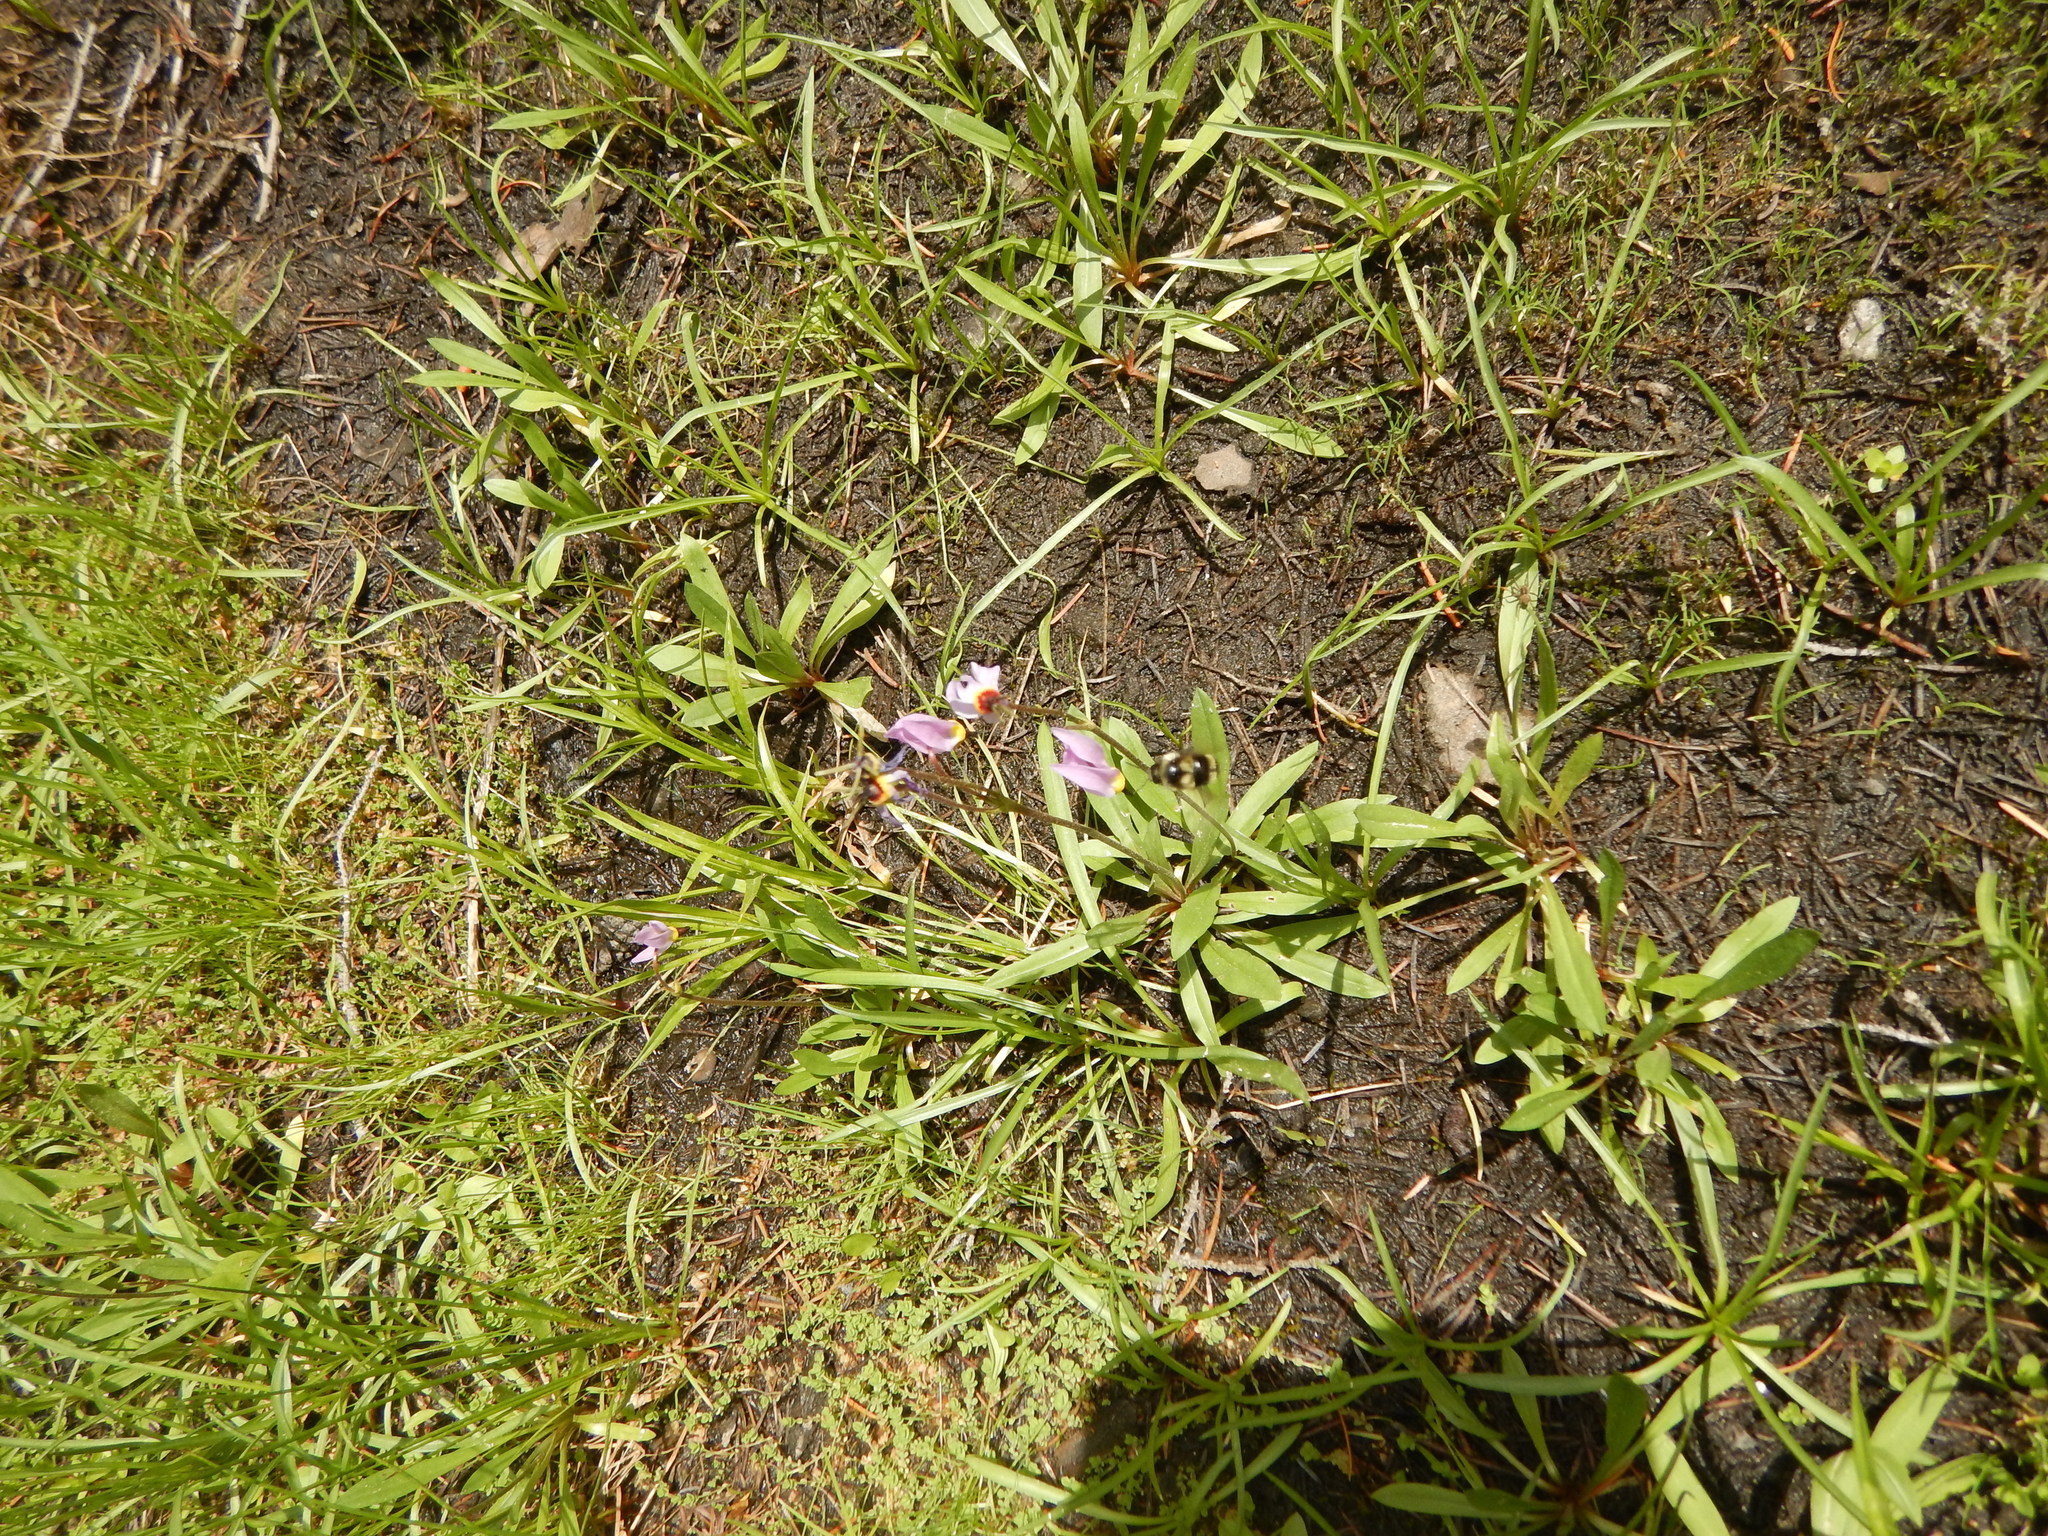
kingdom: Plantae
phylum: Tracheophyta
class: Magnoliopsida
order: Ericales
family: Primulaceae
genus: Dodecatheon
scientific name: Dodecatheon jeffreyanum
